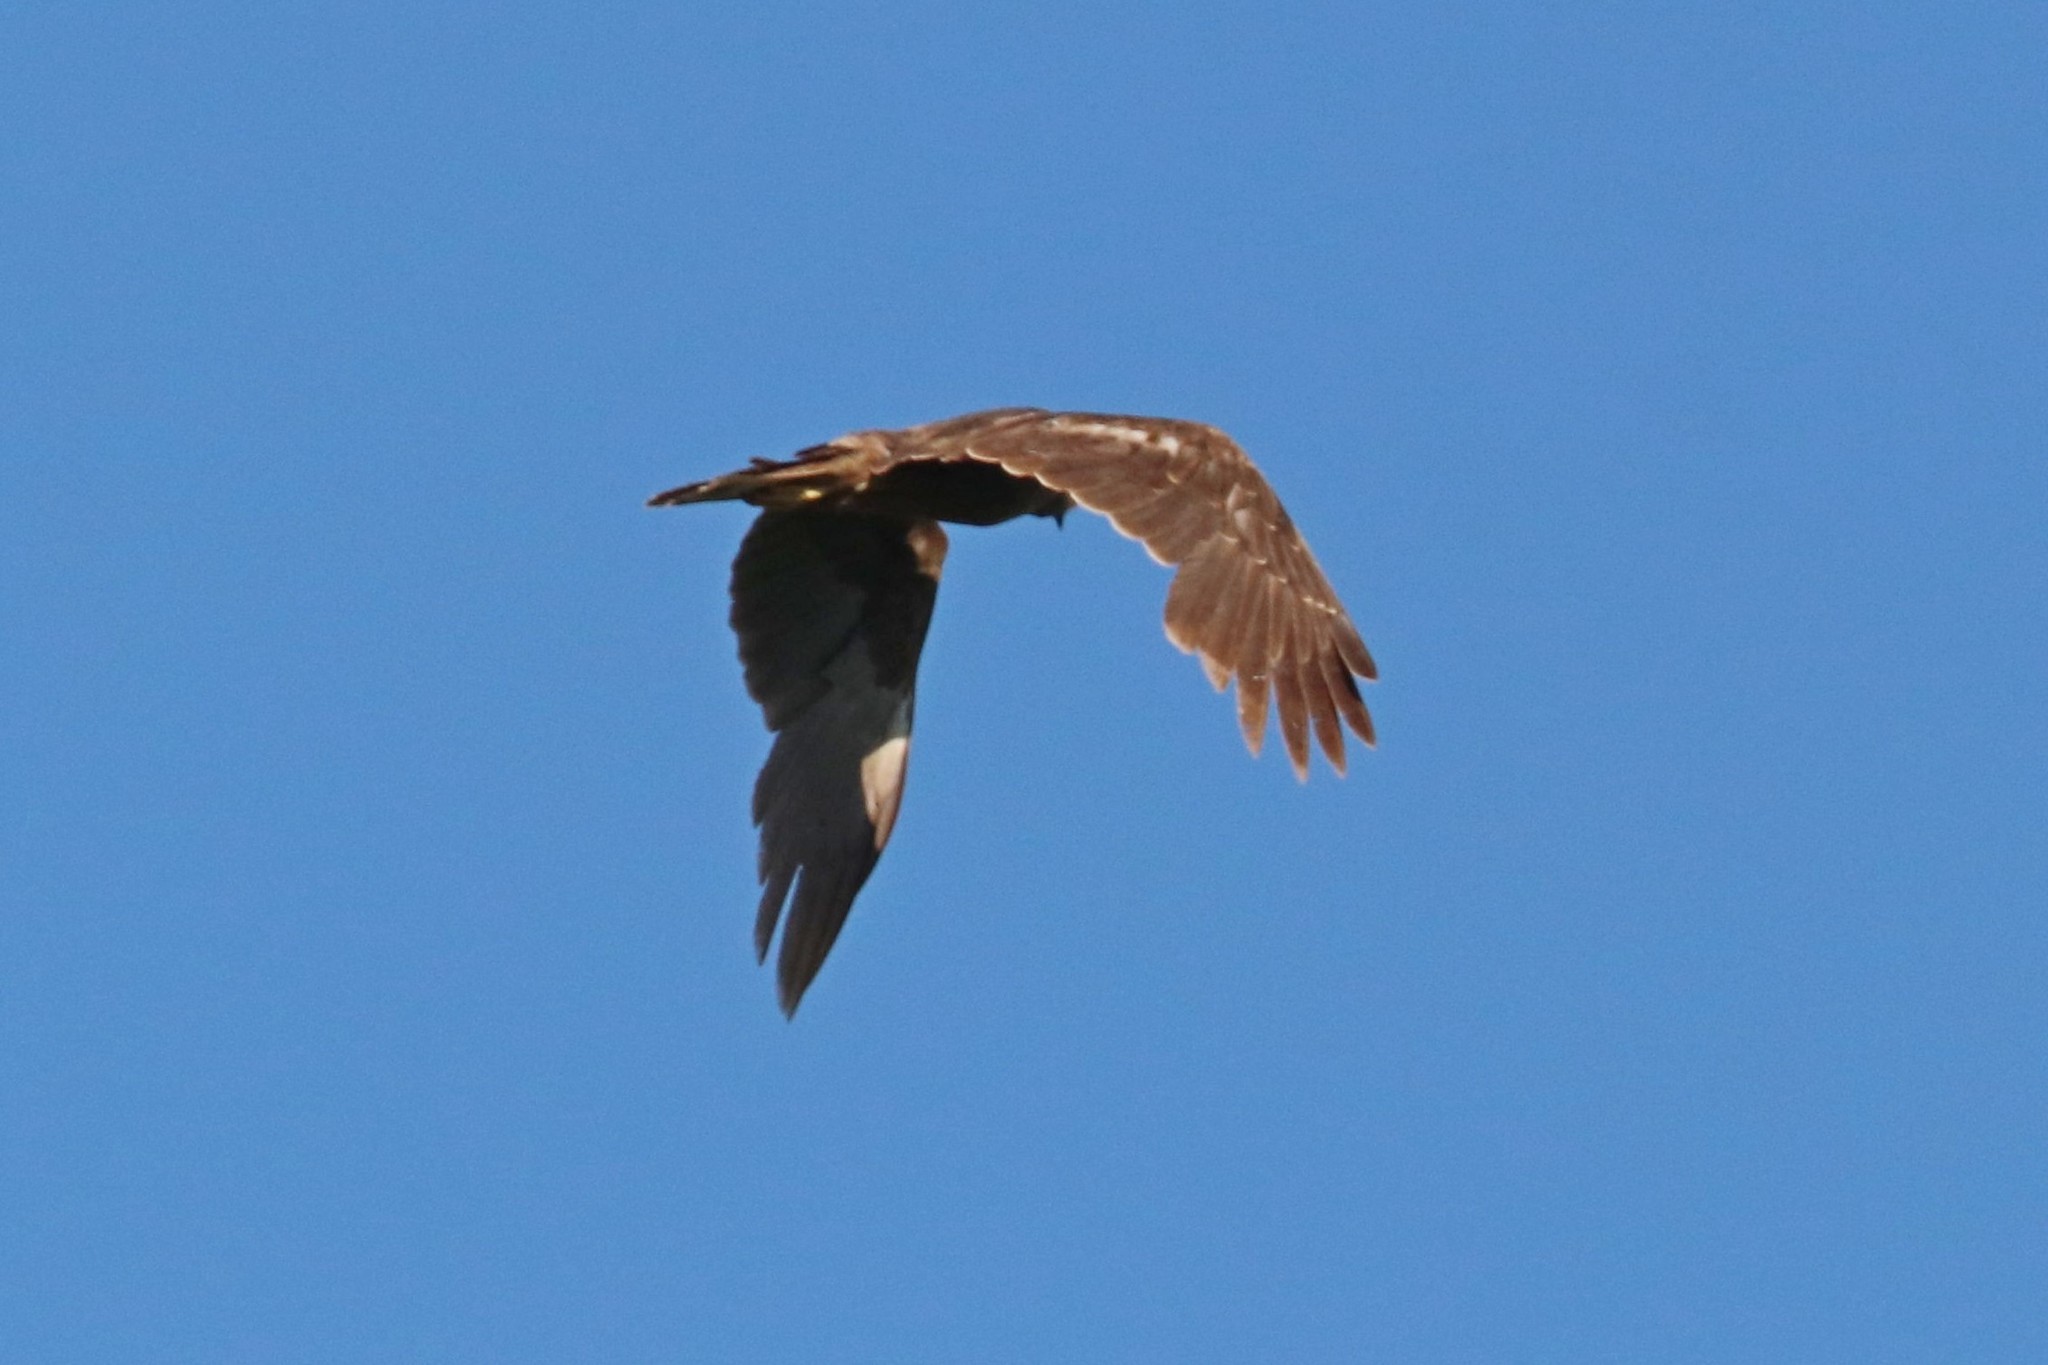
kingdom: Animalia
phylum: Chordata
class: Aves
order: Accipitriformes
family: Accipitridae
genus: Circus
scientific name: Circus aeruginosus
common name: Western marsh harrier
